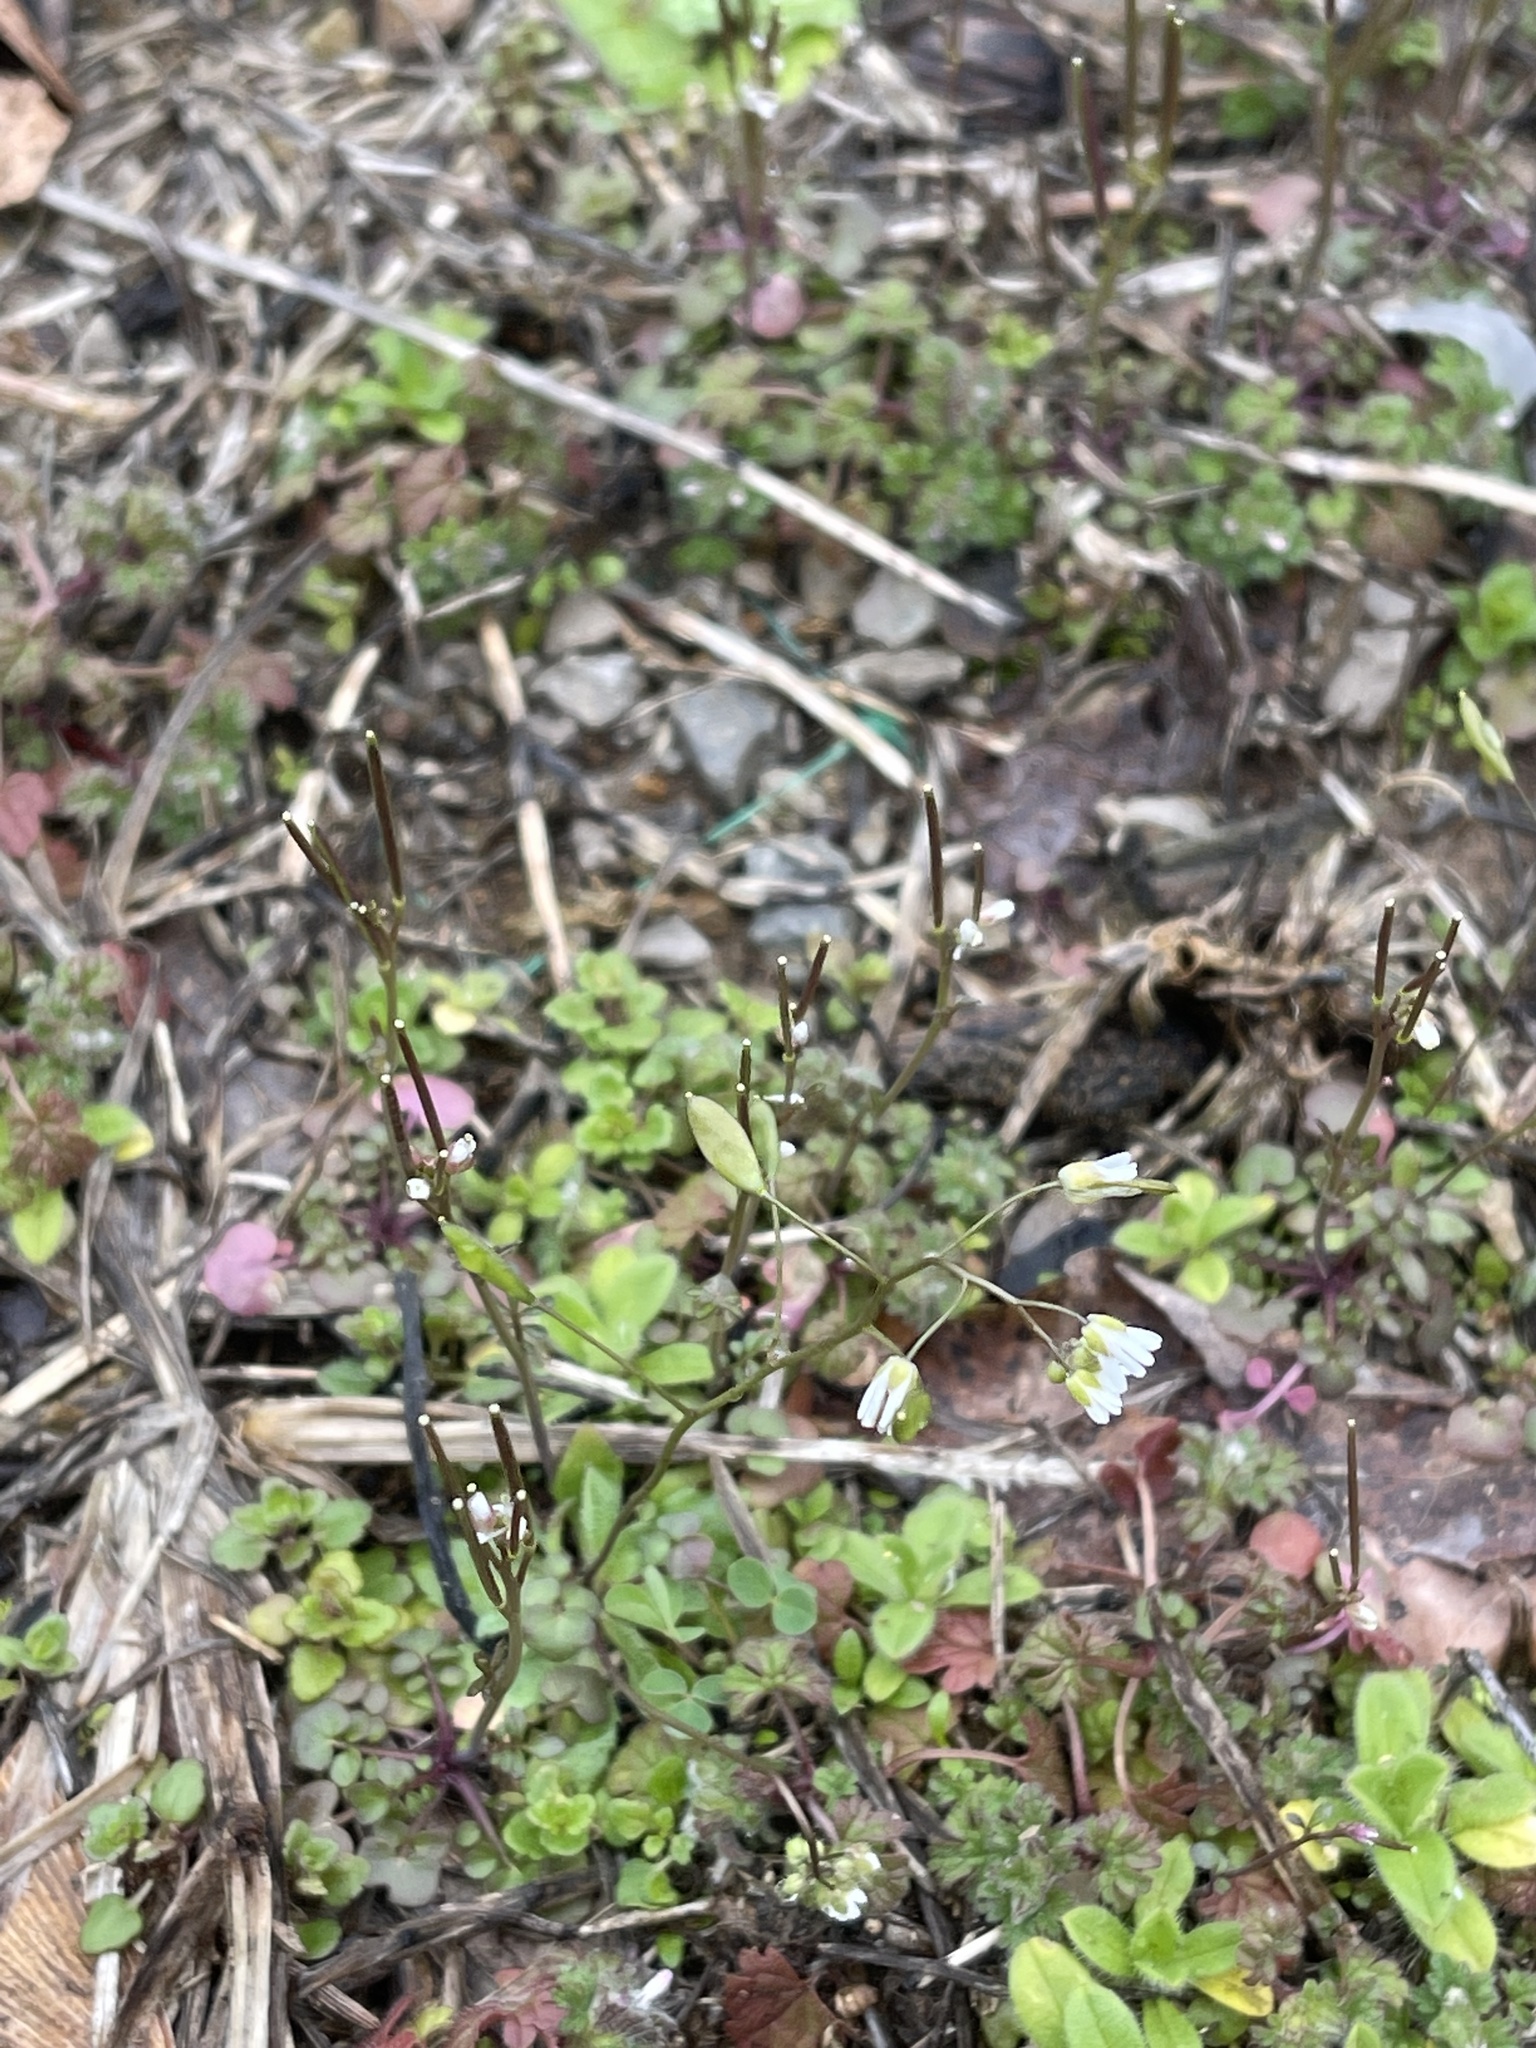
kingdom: Plantae
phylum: Tracheophyta
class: Magnoliopsida
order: Brassicales
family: Brassicaceae
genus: Draba
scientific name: Draba verna
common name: Spring draba
